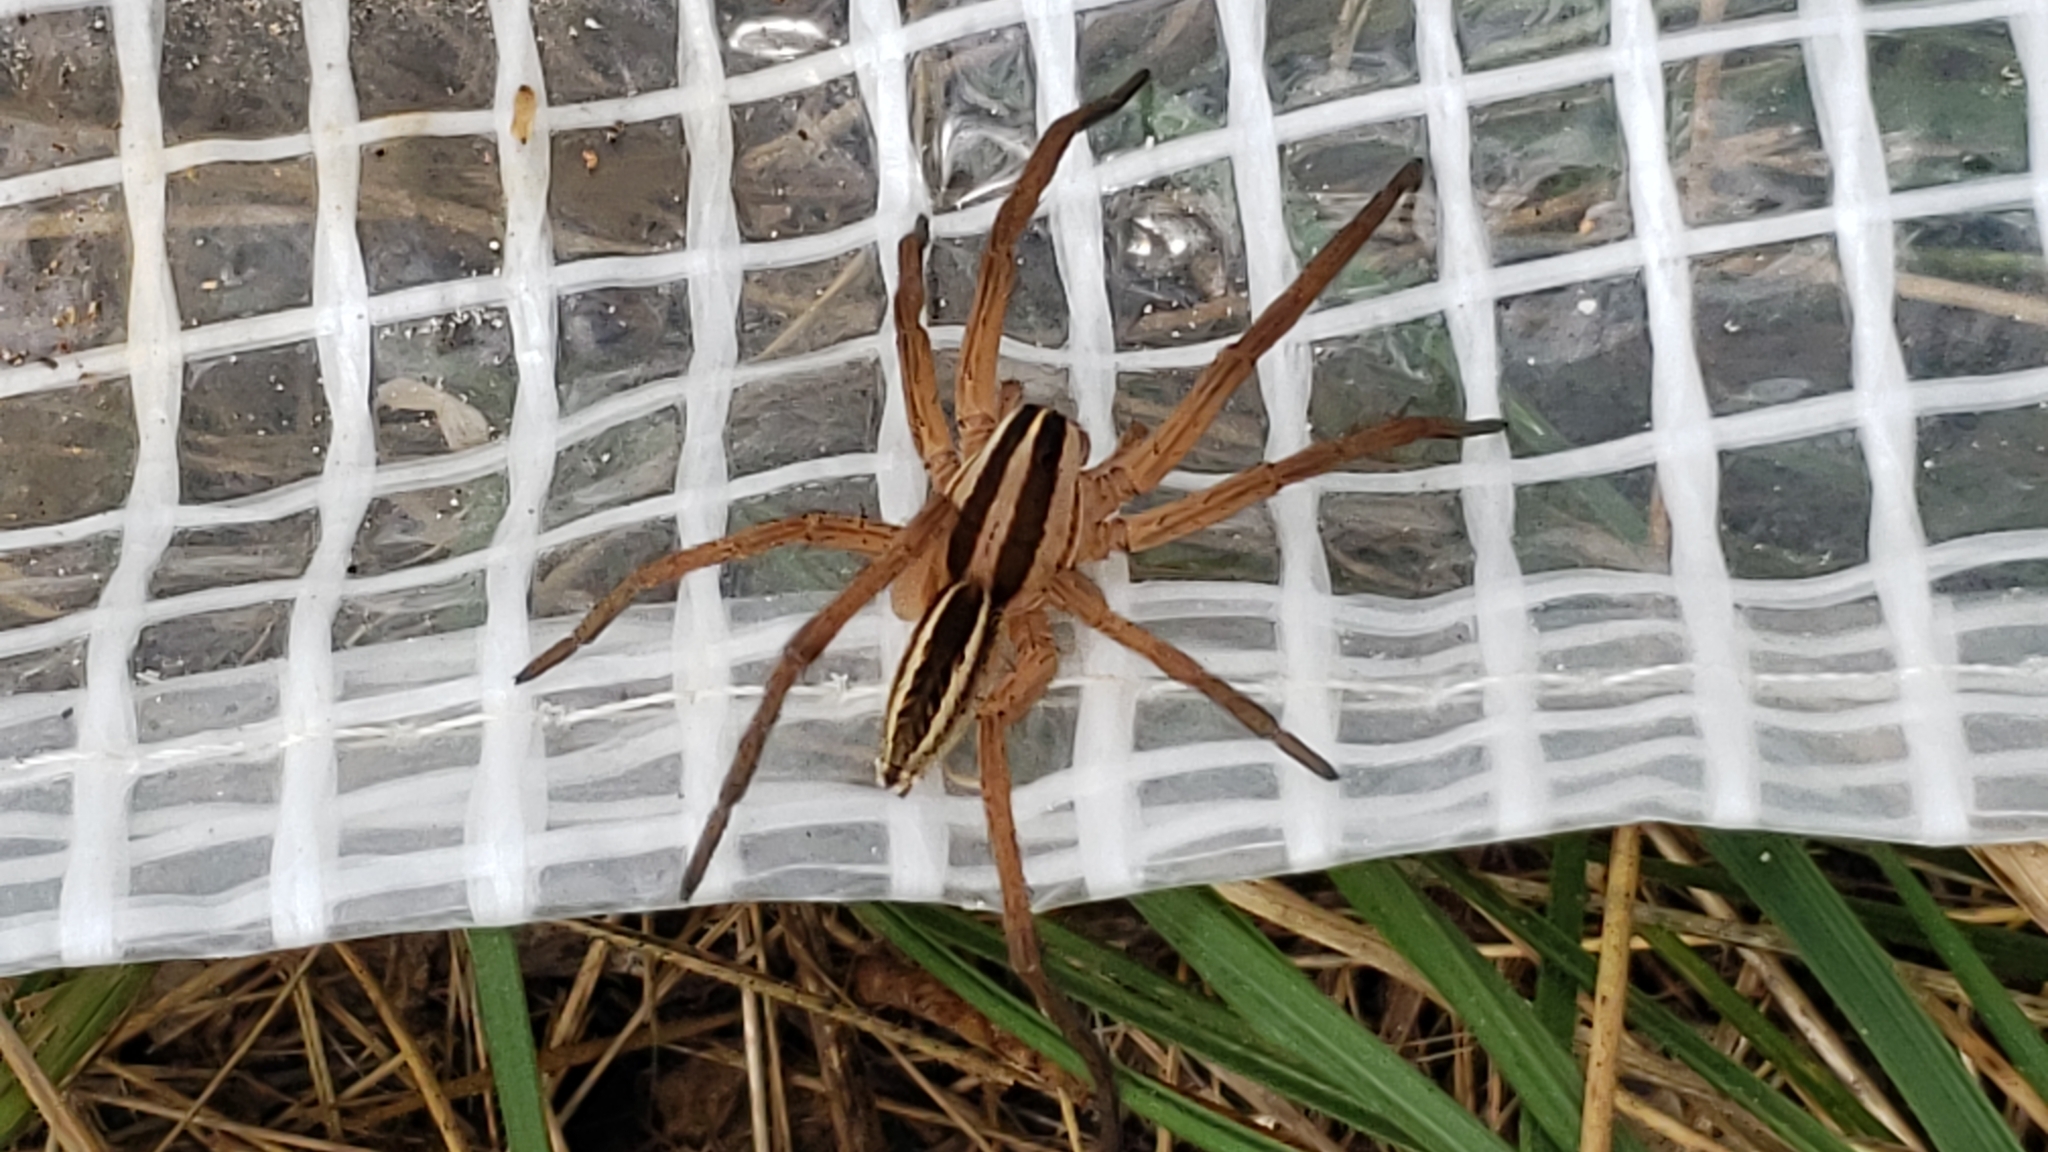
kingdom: Animalia
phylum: Arthropoda
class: Arachnida
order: Araneae
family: Lycosidae
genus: Rabidosa
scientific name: Rabidosa rabida
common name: Rabid wolf spider
